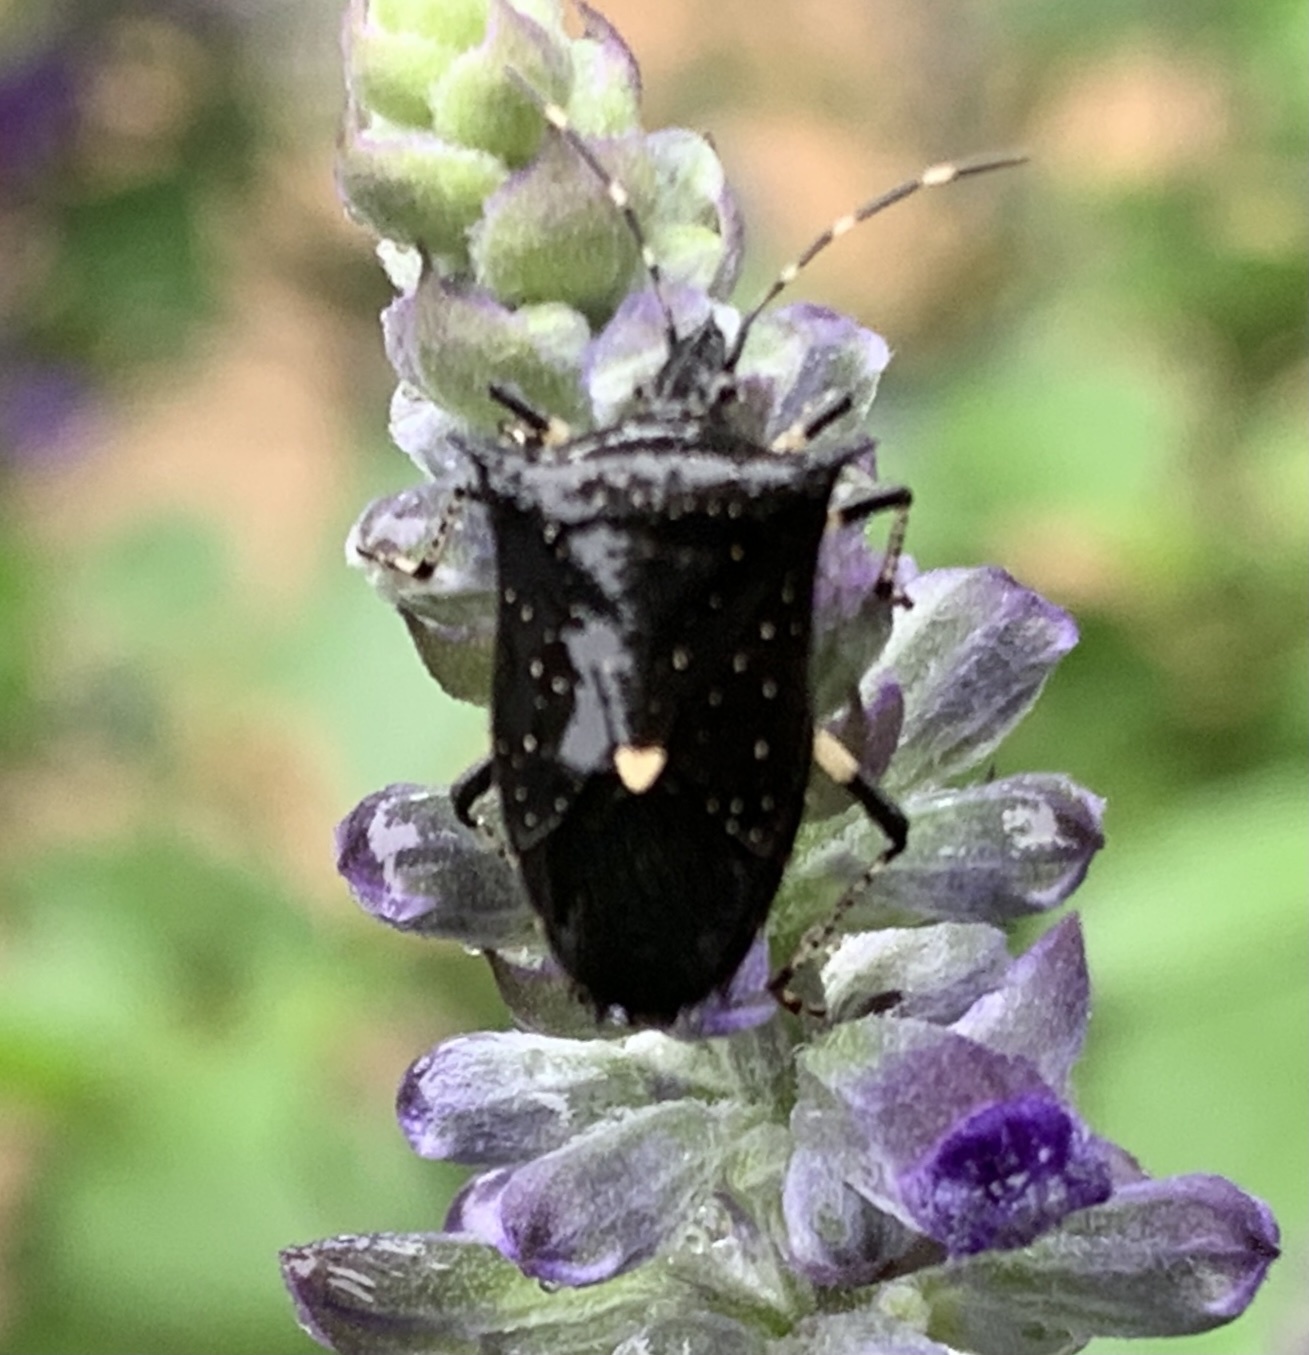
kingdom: Animalia
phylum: Arthropoda
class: Insecta
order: Hemiptera
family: Pentatomidae
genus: Proxys
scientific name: Proxys punctulatus
